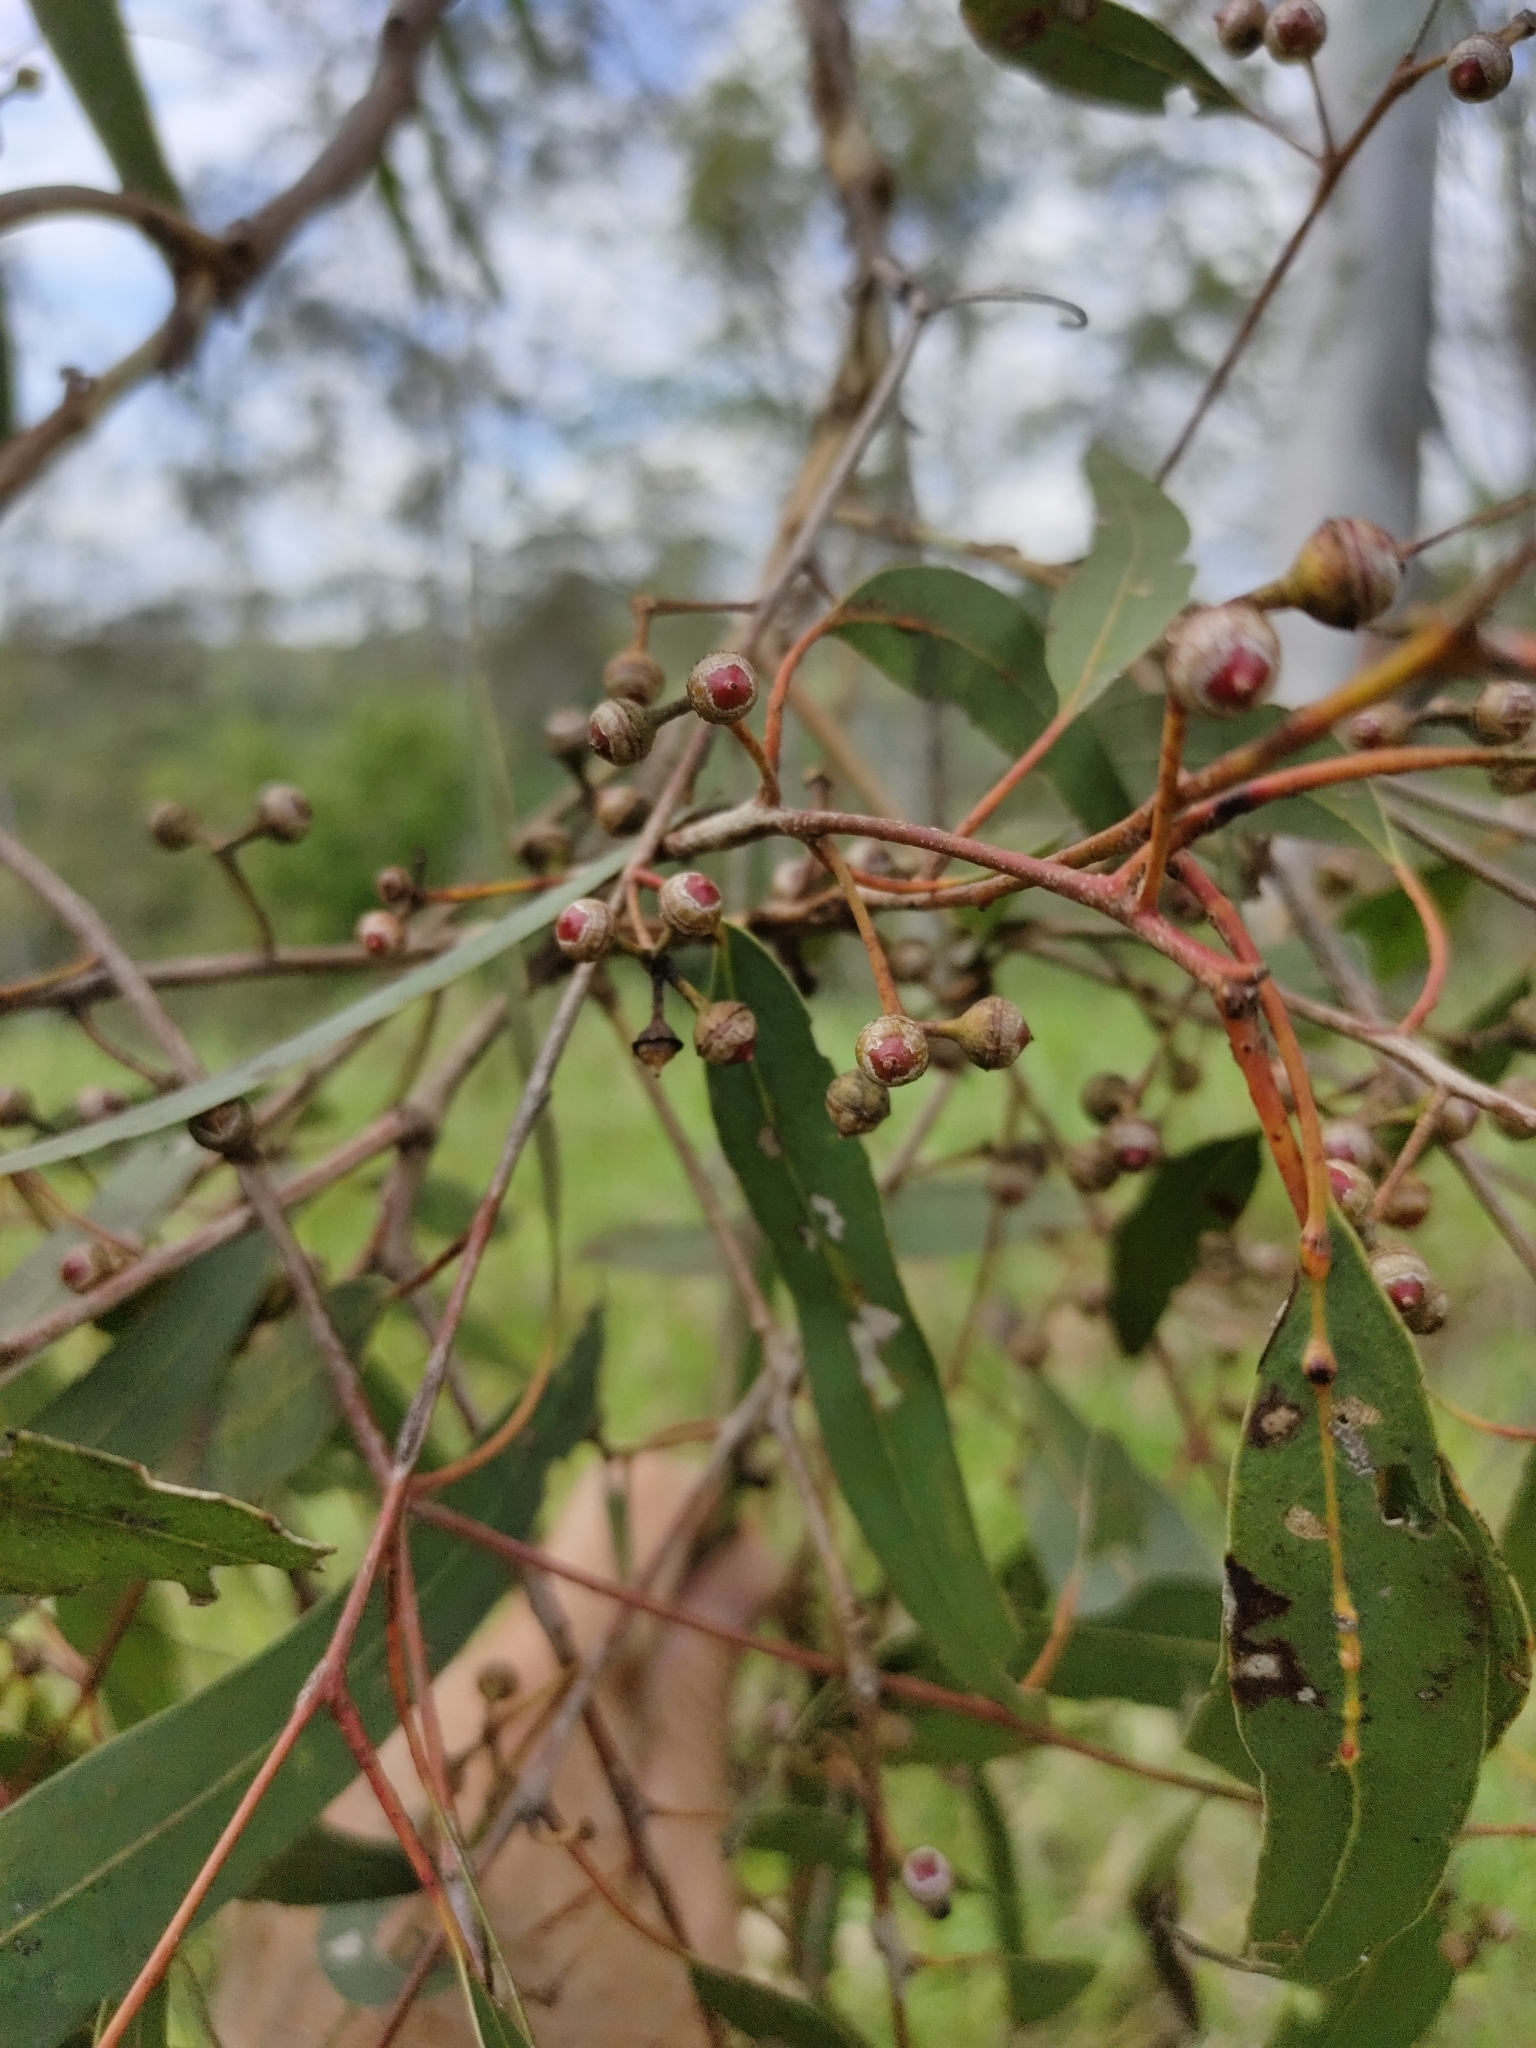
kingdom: Plantae
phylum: Tracheophyta
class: Magnoliopsida
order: Myrtales
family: Myrtaceae
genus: Eucalyptus
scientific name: Eucalyptus tereticornis
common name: Forest redgum
